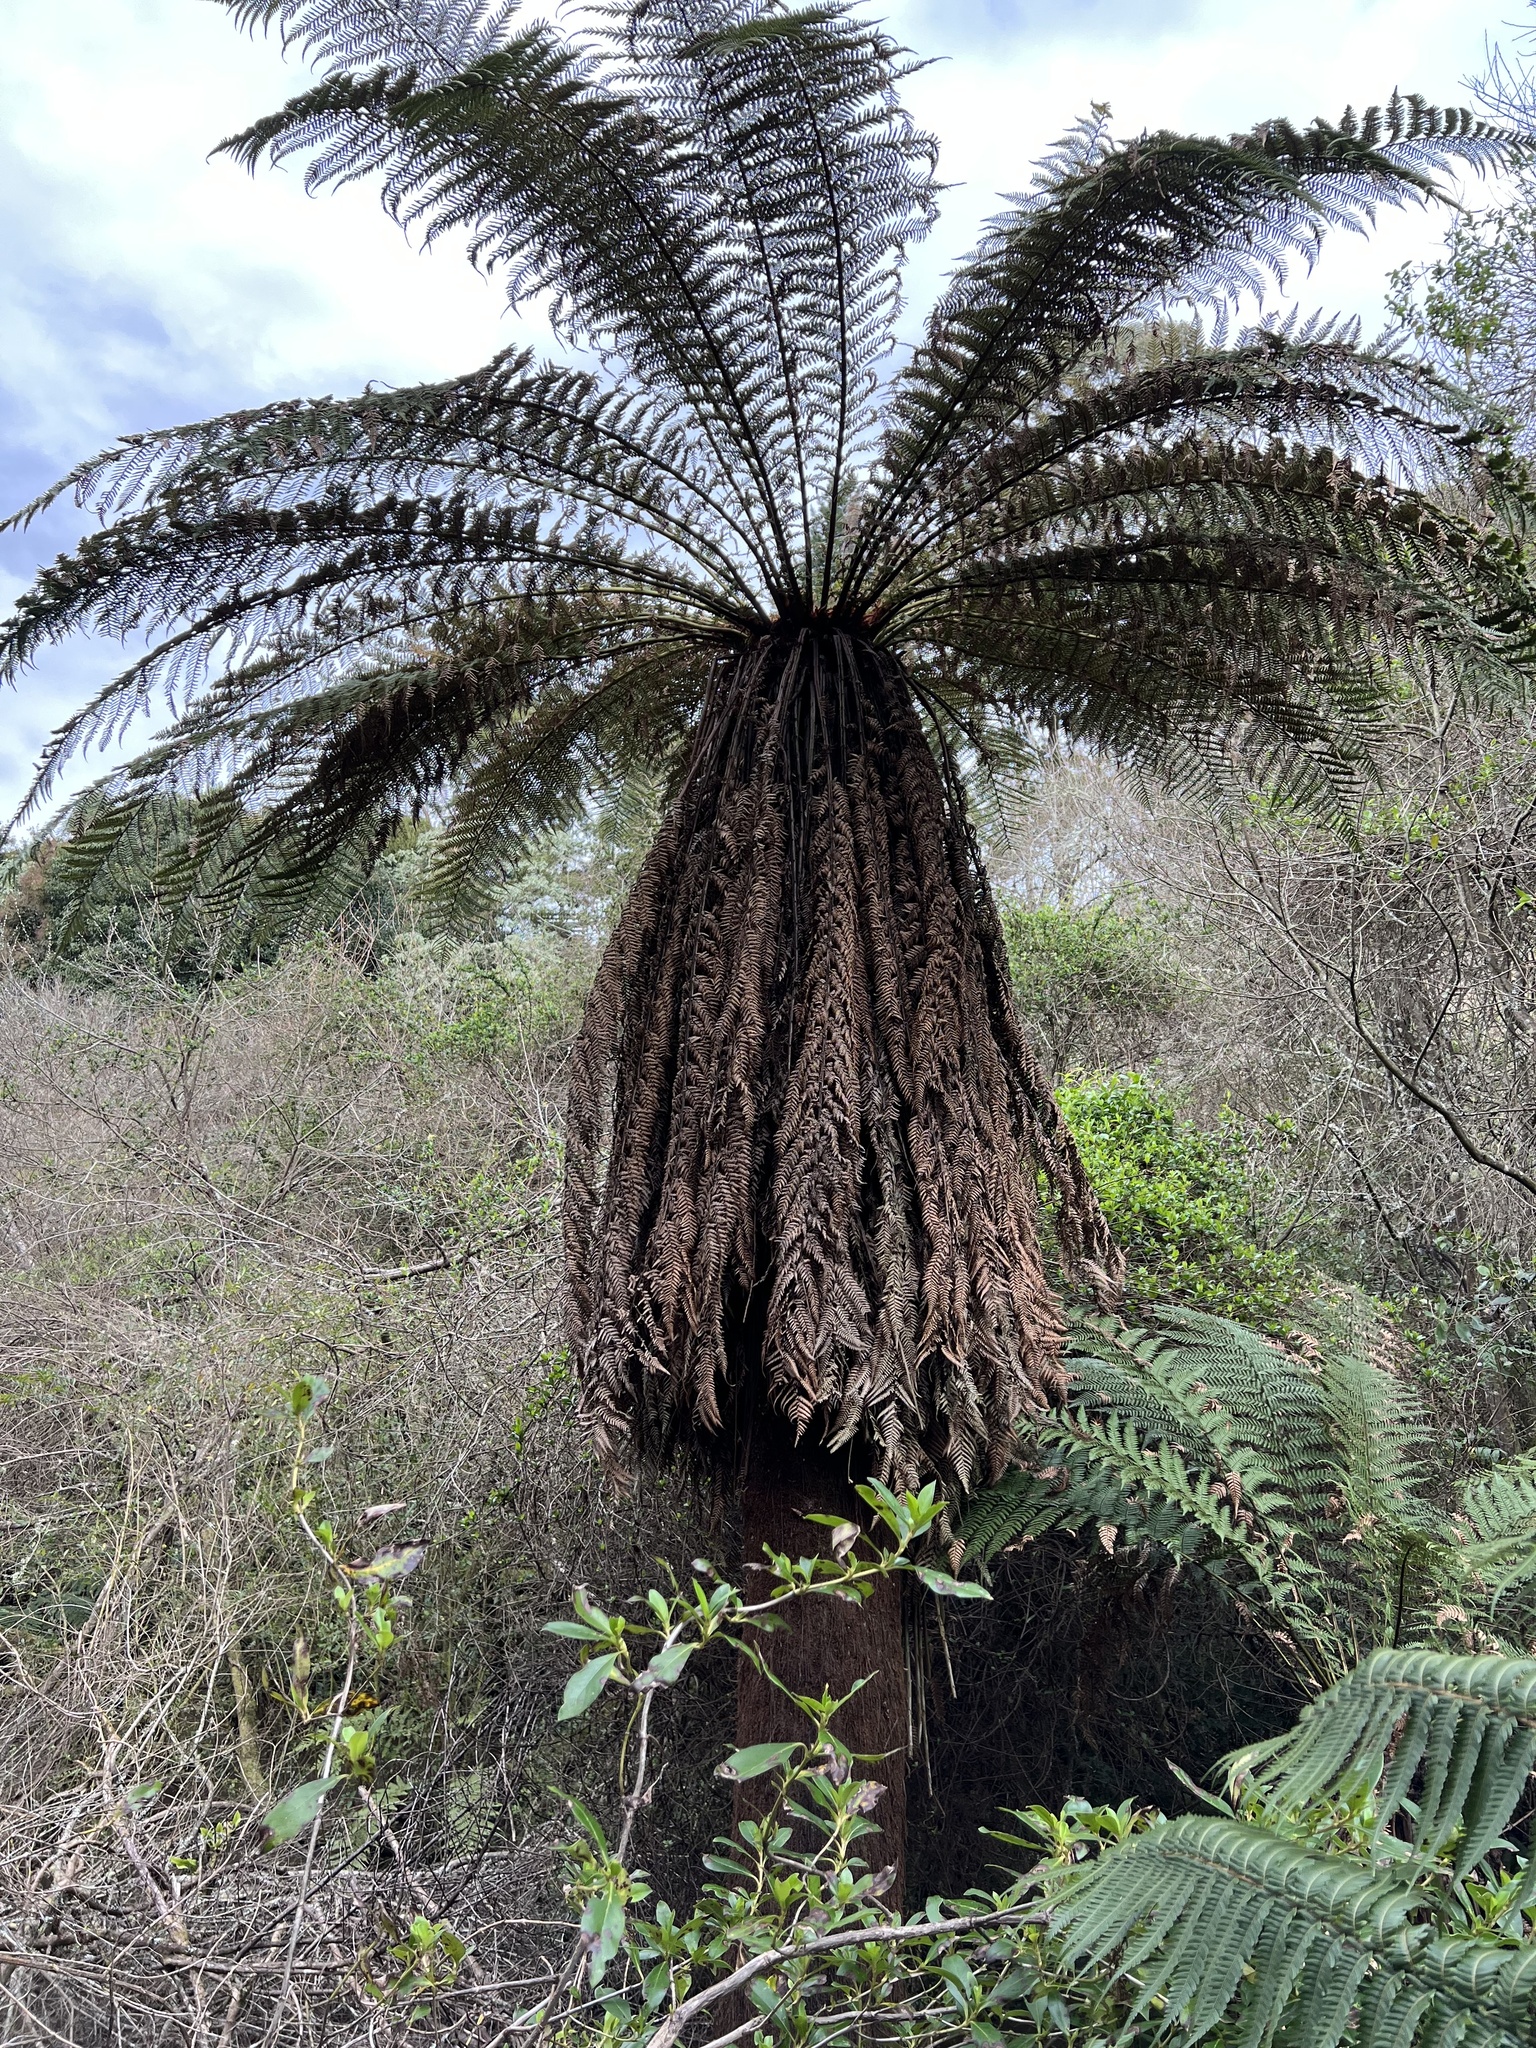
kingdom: Plantae
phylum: Tracheophyta
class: Polypodiopsida
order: Cyatheales
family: Dicksoniaceae
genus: Dicksonia
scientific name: Dicksonia fibrosa
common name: Golden tree fern
